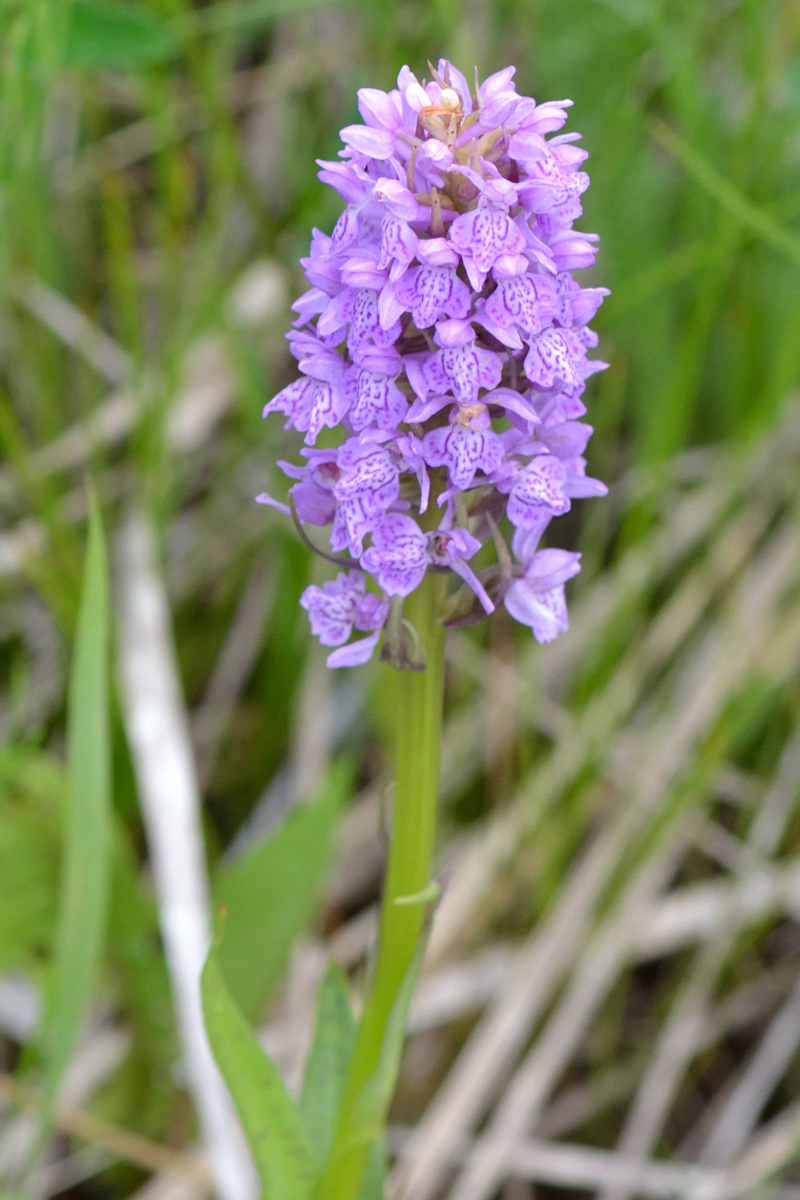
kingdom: Plantae
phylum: Tracheophyta
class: Liliopsida
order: Asparagales
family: Orchidaceae
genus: Dactylorhiza
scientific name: Dactylorhiza majalis
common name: Marsh orchid
